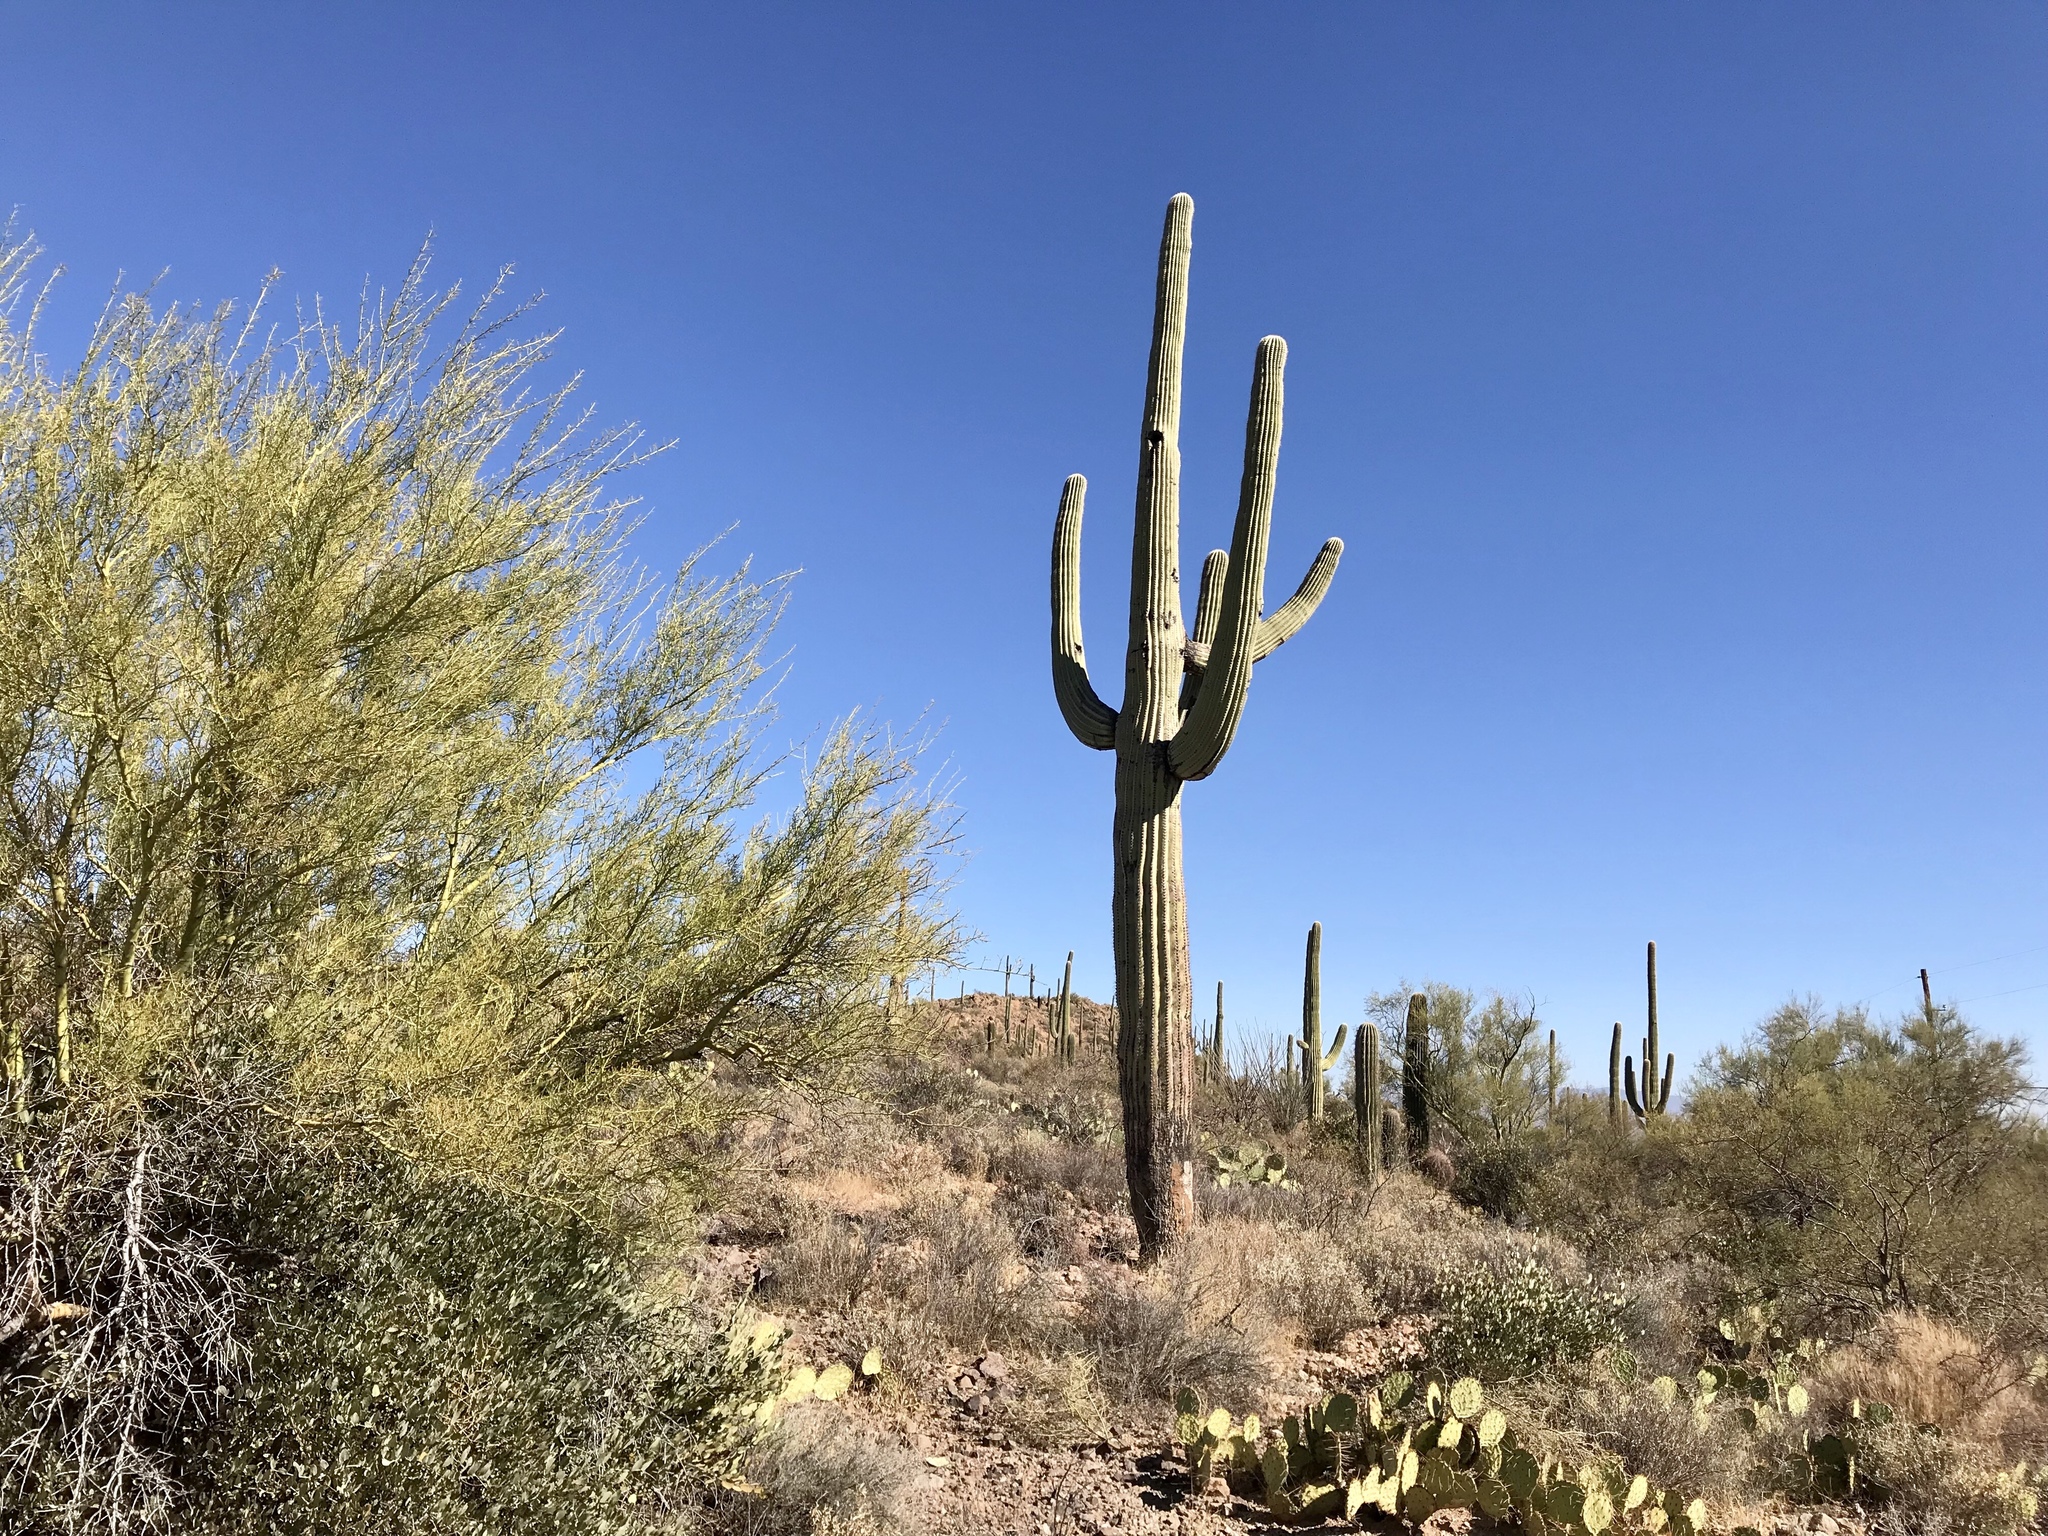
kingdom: Plantae
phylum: Tracheophyta
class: Magnoliopsida
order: Caryophyllales
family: Cactaceae
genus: Carnegiea
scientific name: Carnegiea gigantea
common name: Saguaro
